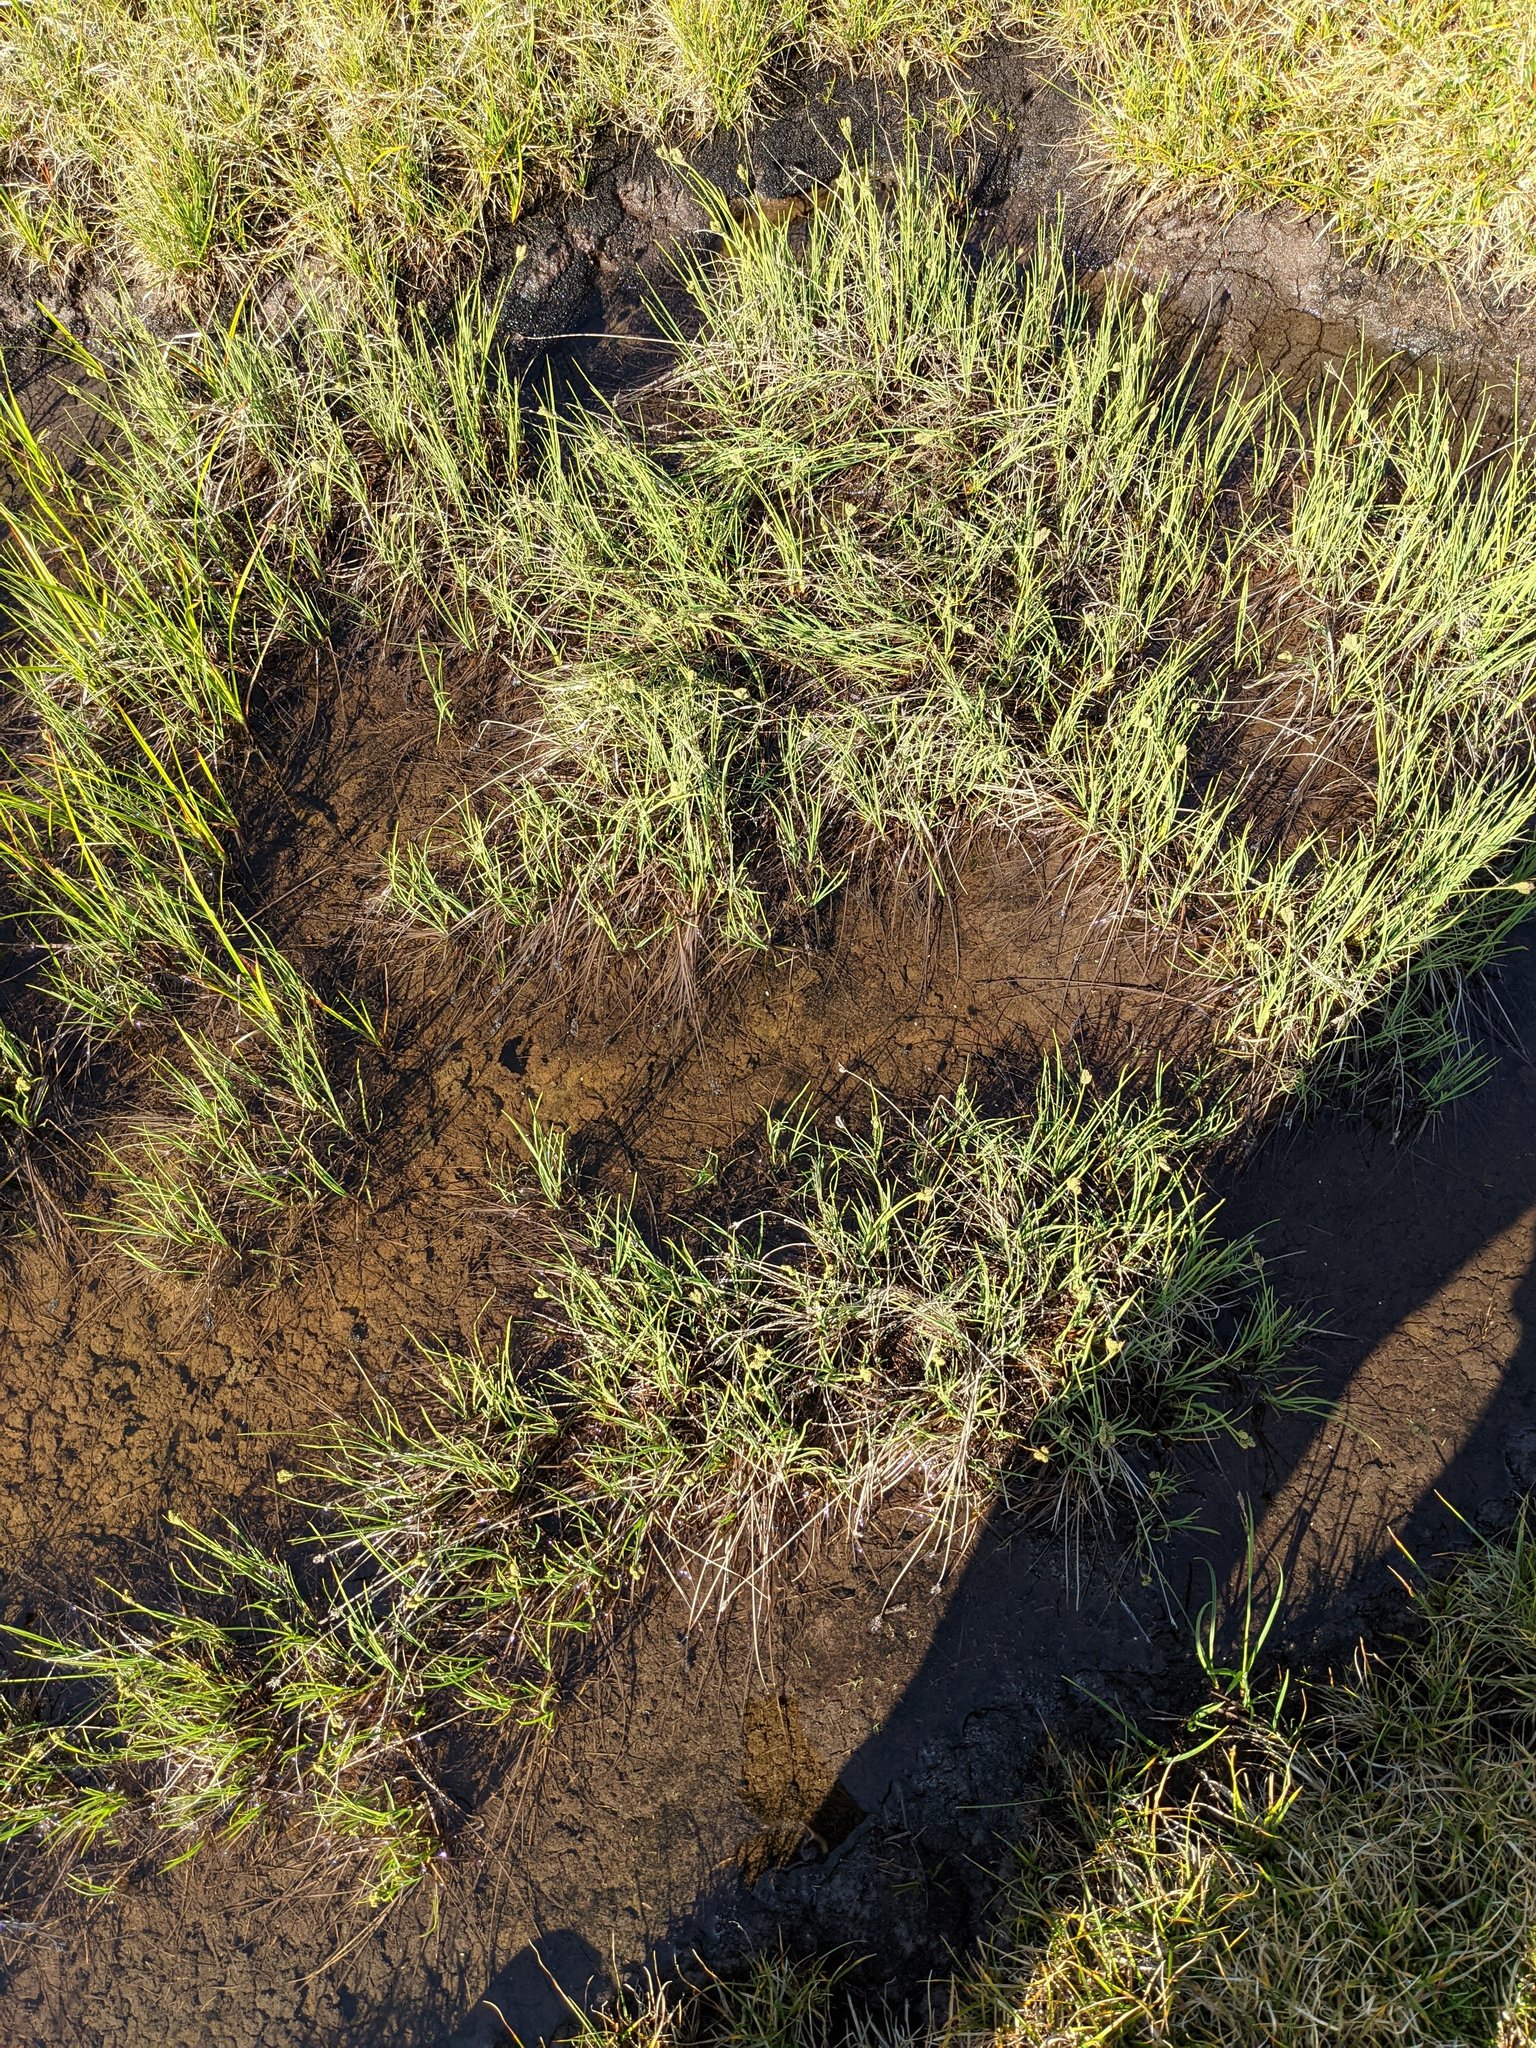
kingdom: Plantae
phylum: Tracheophyta
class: Liliopsida
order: Poales
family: Cyperaceae
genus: Carex
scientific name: Carex plectocarpa
